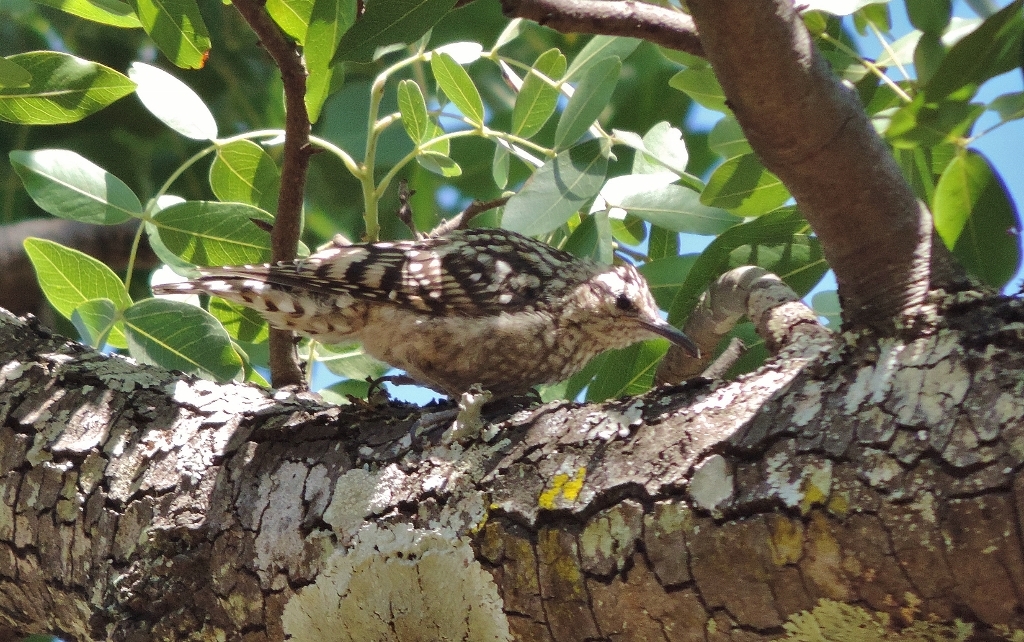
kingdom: Animalia
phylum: Chordata
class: Aves
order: Passeriformes
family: Certhiidae
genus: Salpornis
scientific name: Salpornis salvadori
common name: African spotted creeper
